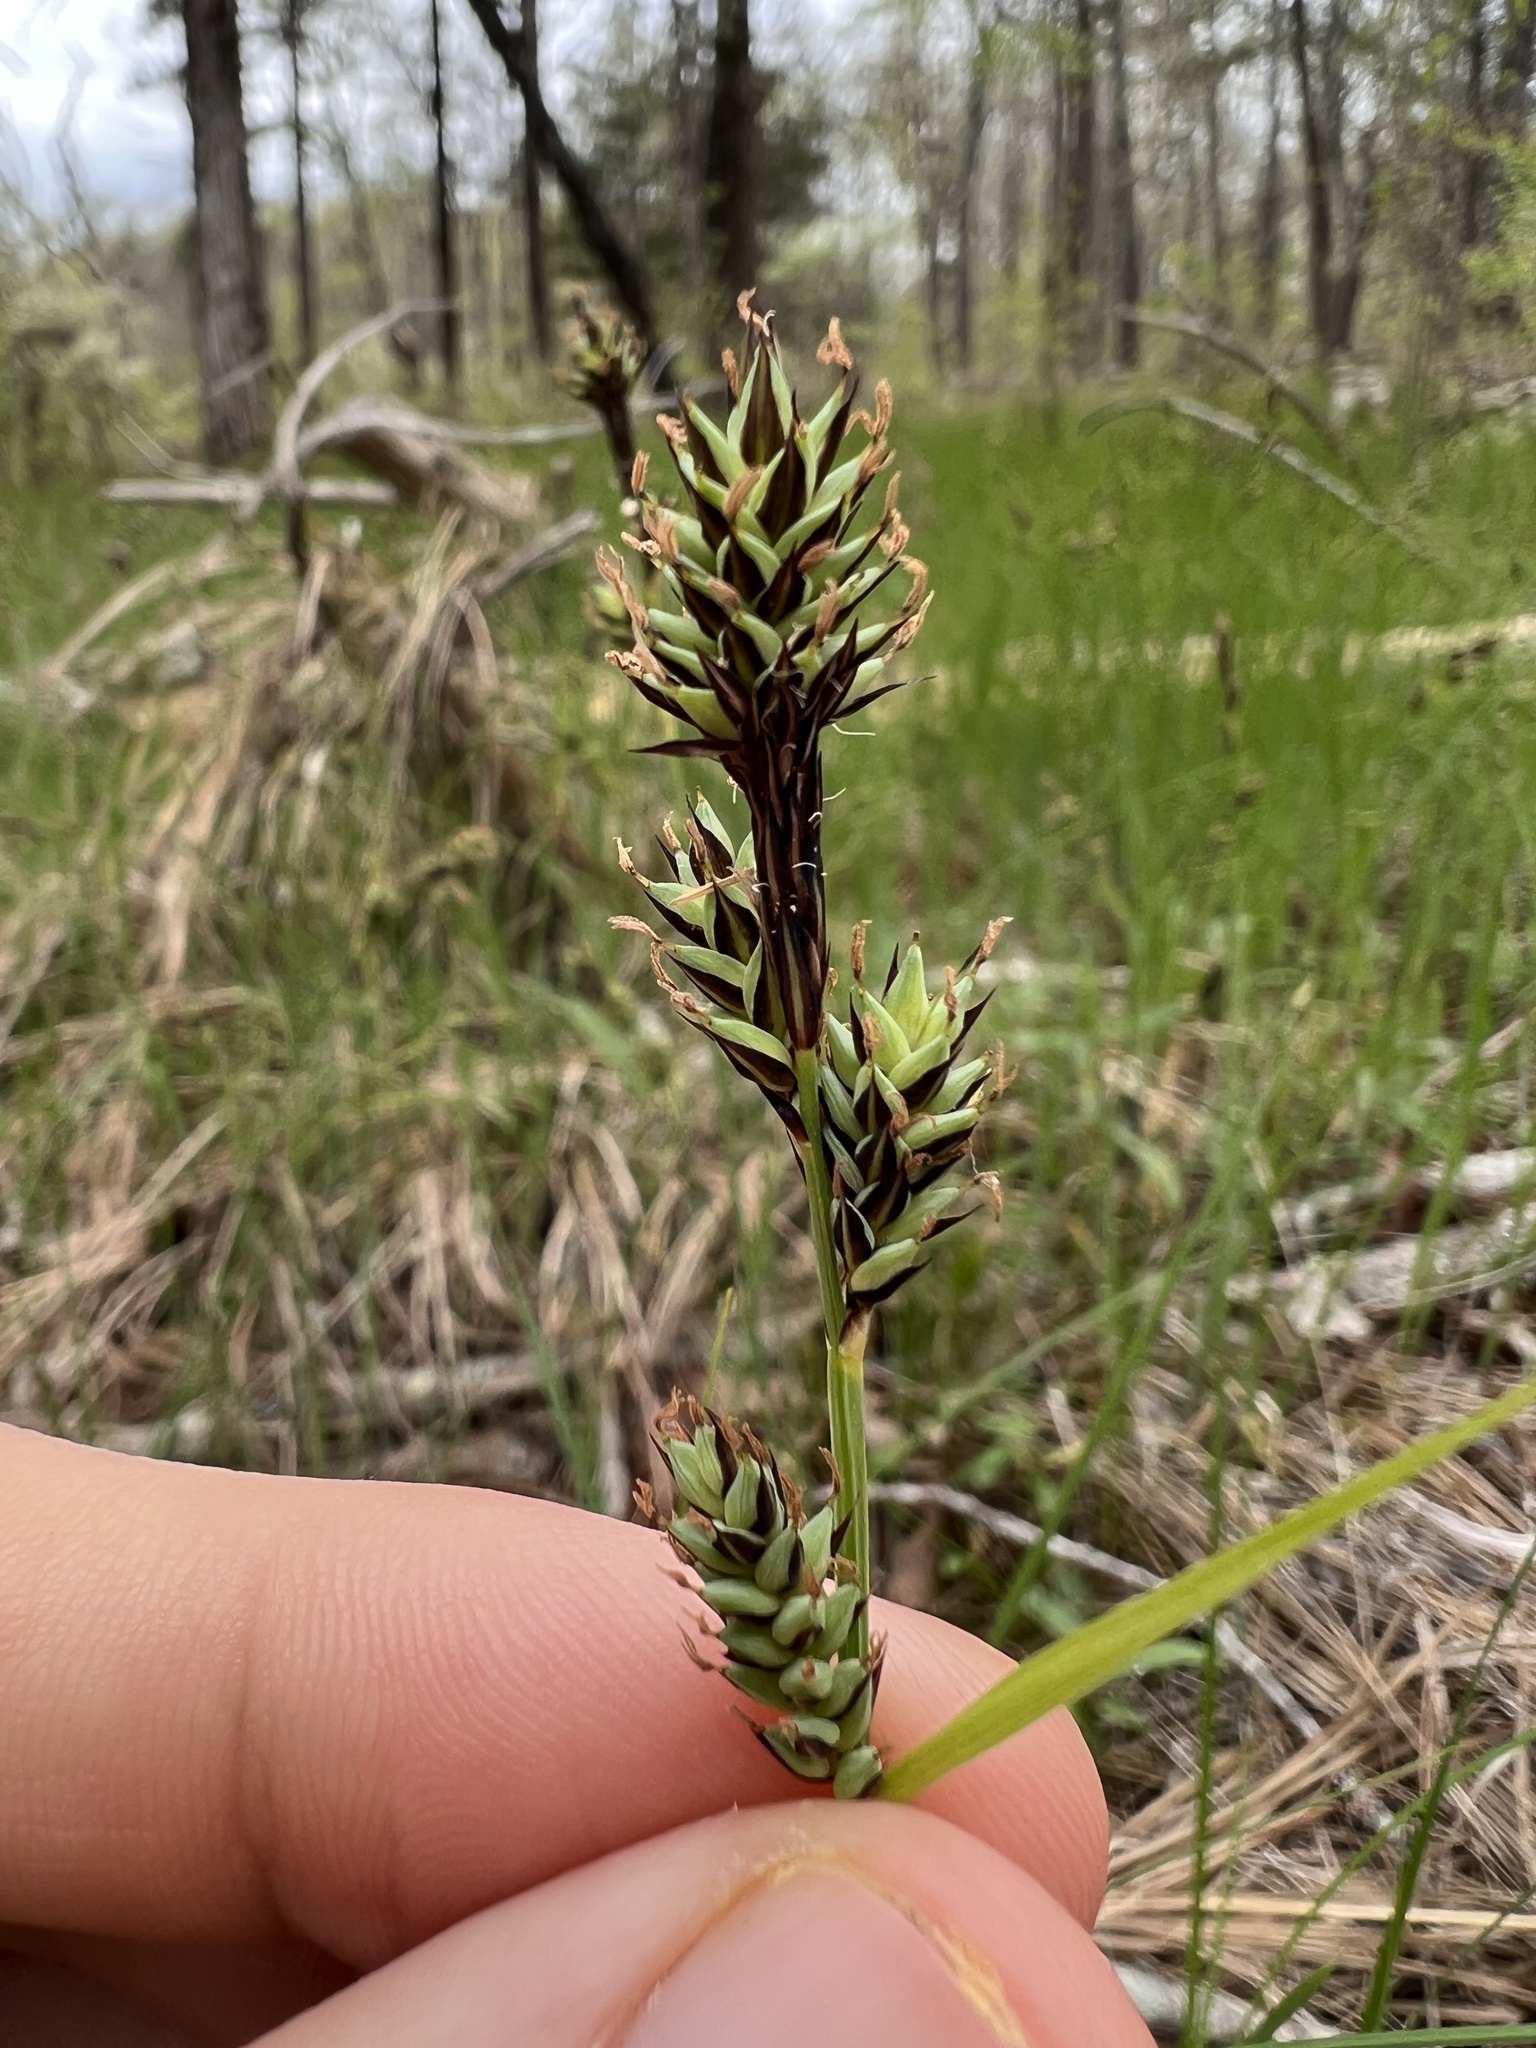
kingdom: Plantae
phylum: Tracheophyta
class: Liliopsida
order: Poales
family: Cyperaceae
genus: Carex
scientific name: Carex buxbaumii
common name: Club sedge
